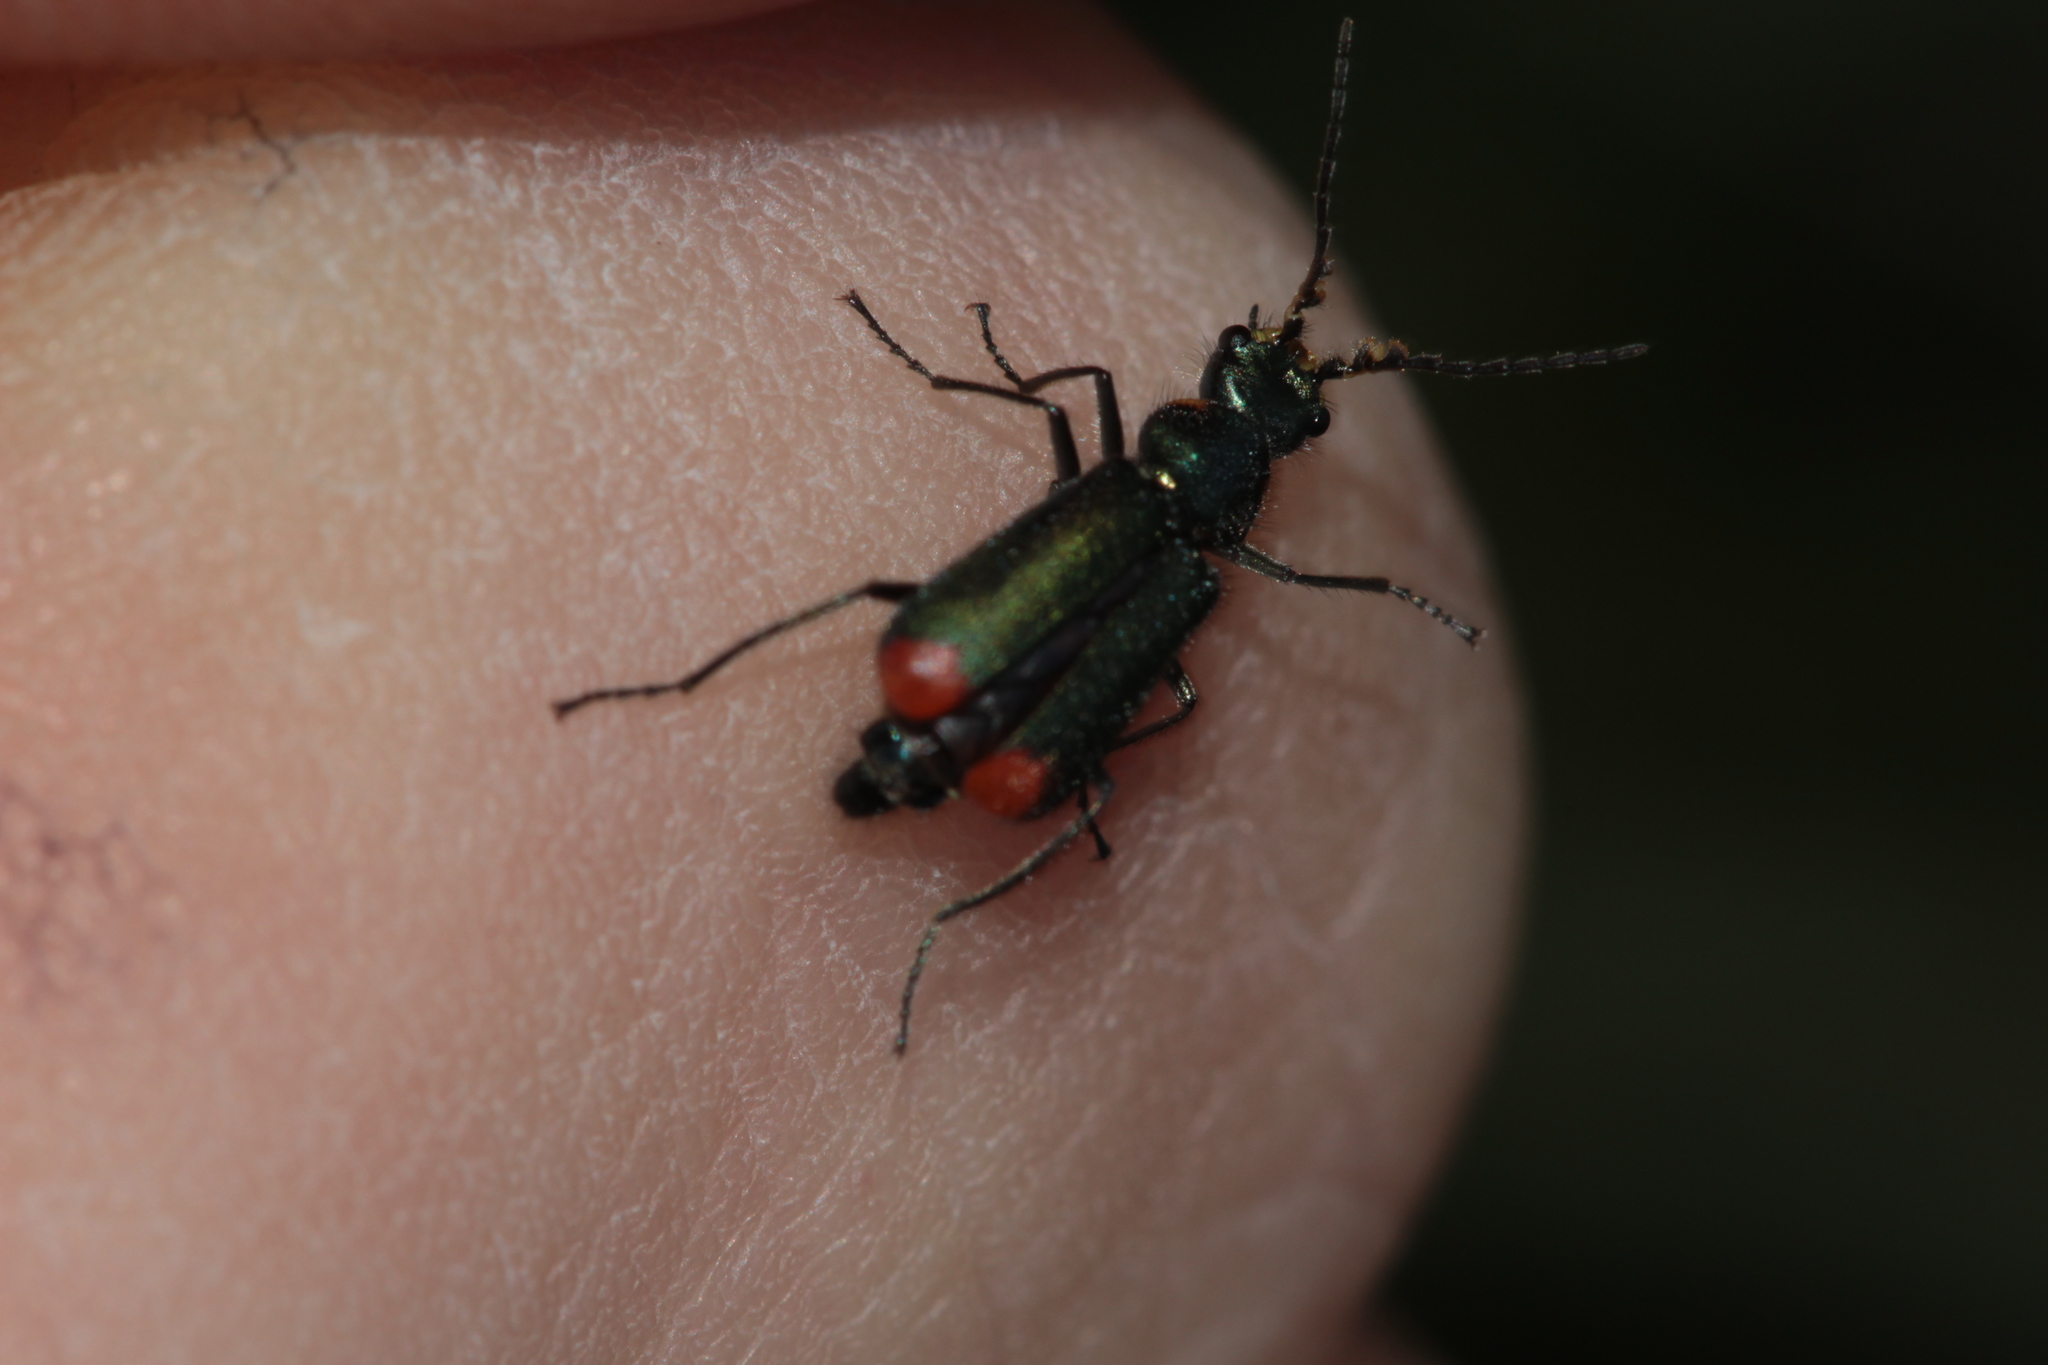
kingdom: Animalia
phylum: Arthropoda
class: Insecta
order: Coleoptera
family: Melyridae
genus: Malachius
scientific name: Malachius bipustulatus
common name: Malachite beetle
